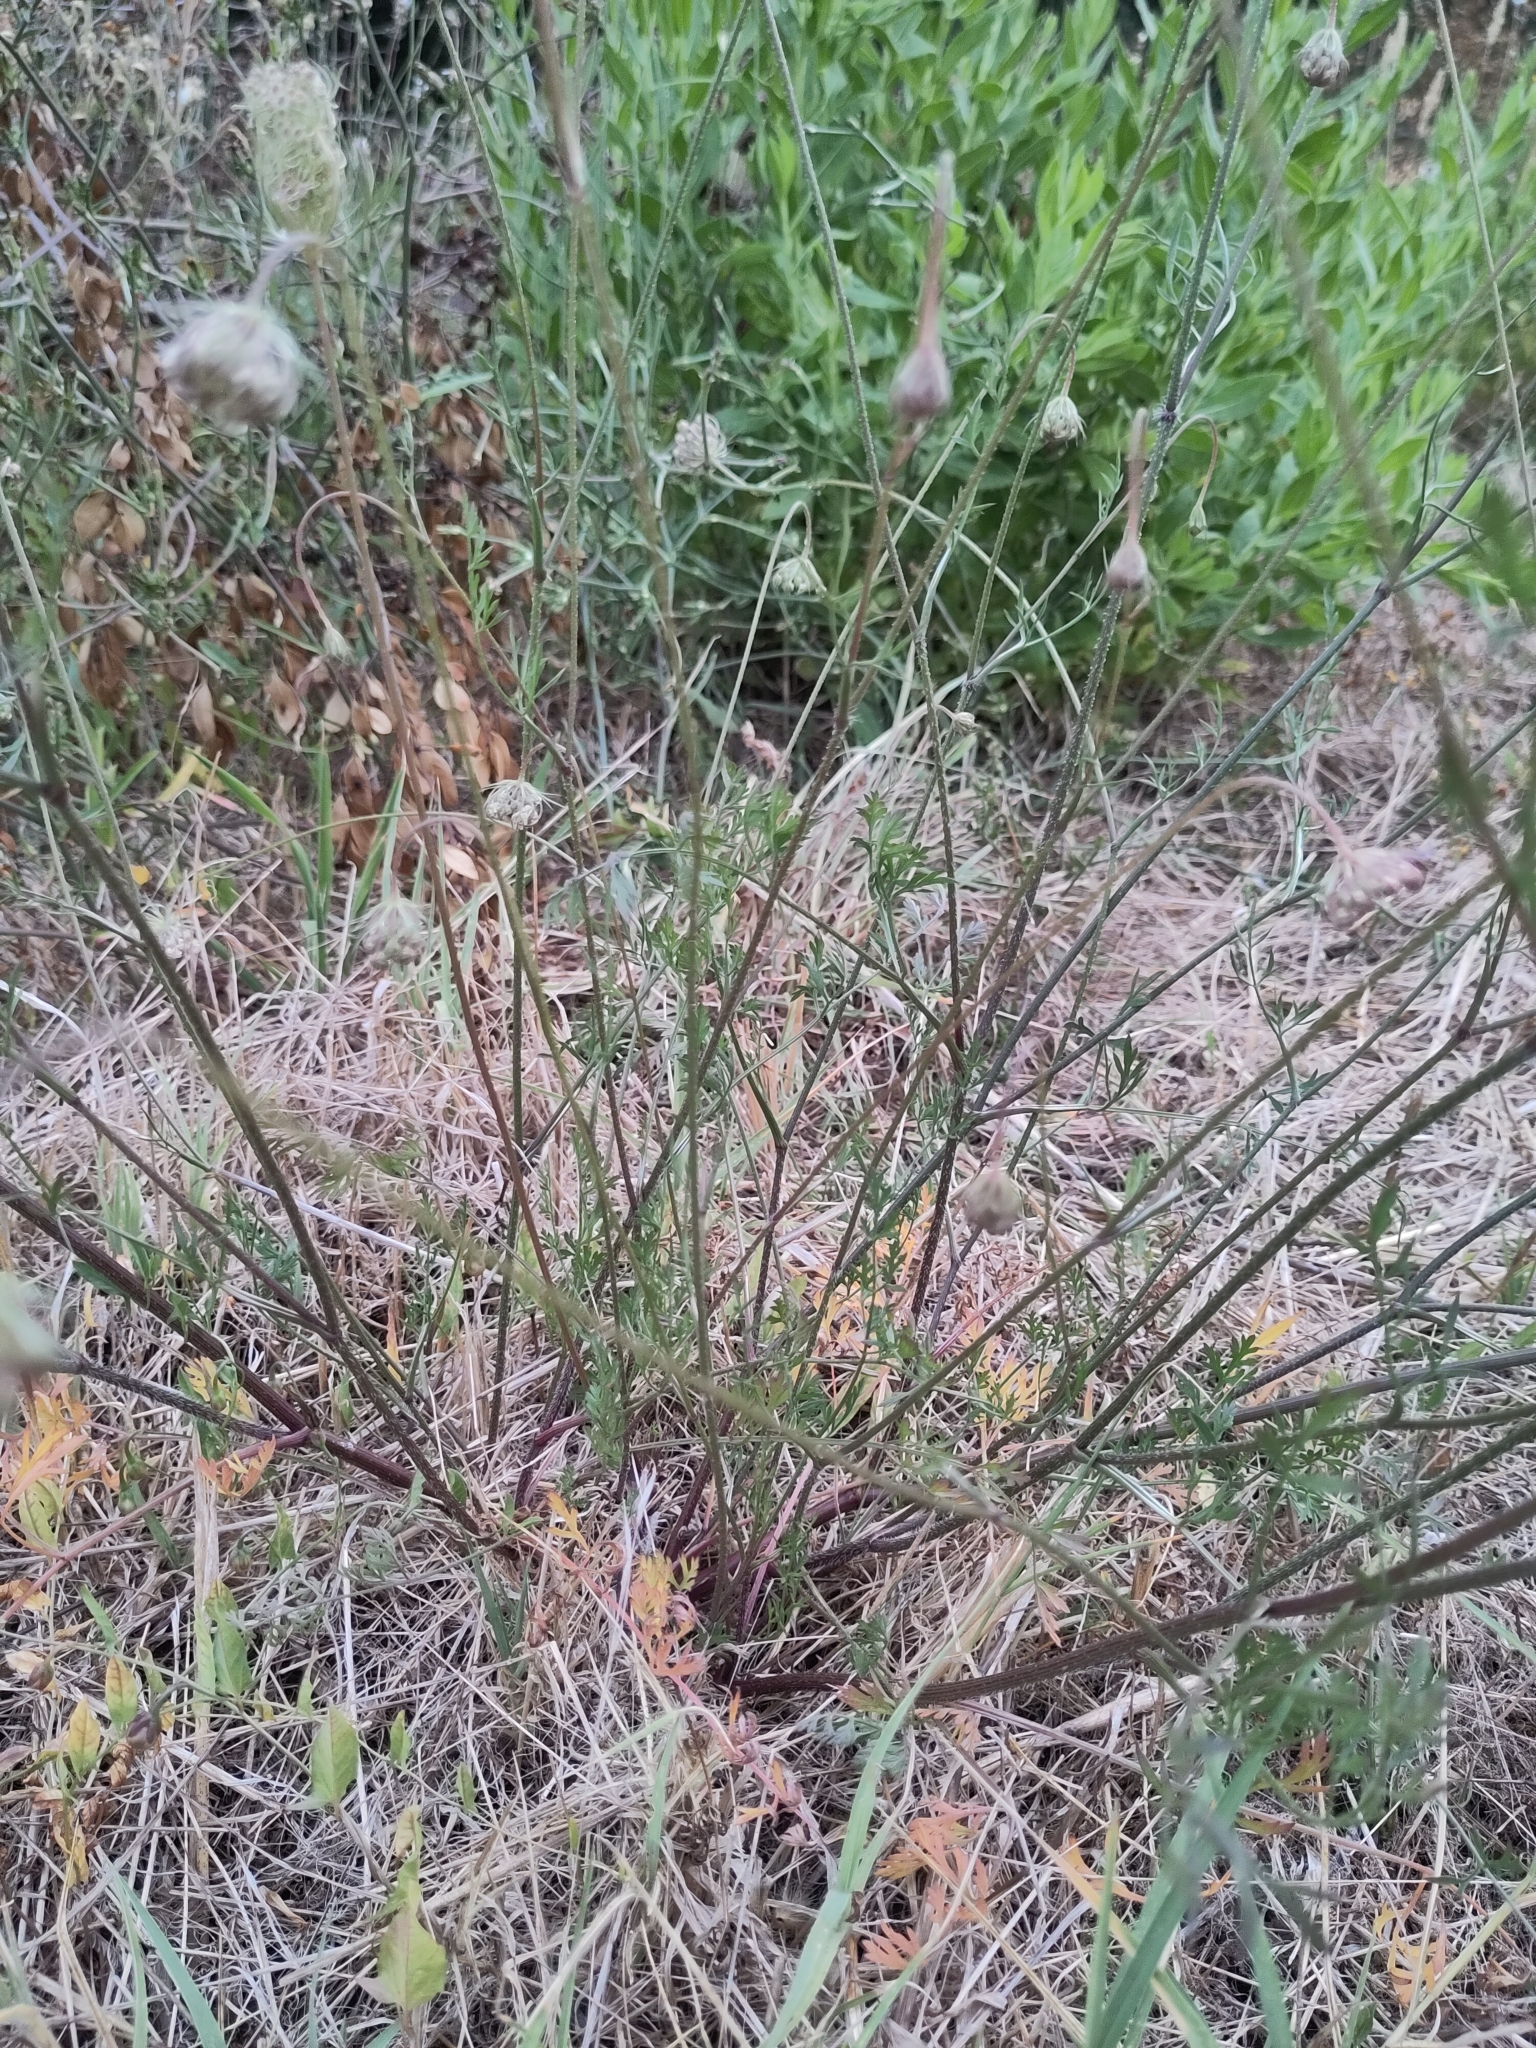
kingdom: Plantae
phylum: Tracheophyta
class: Magnoliopsida
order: Apiales
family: Apiaceae
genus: Daucus
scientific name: Daucus carota
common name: Wild carrot
